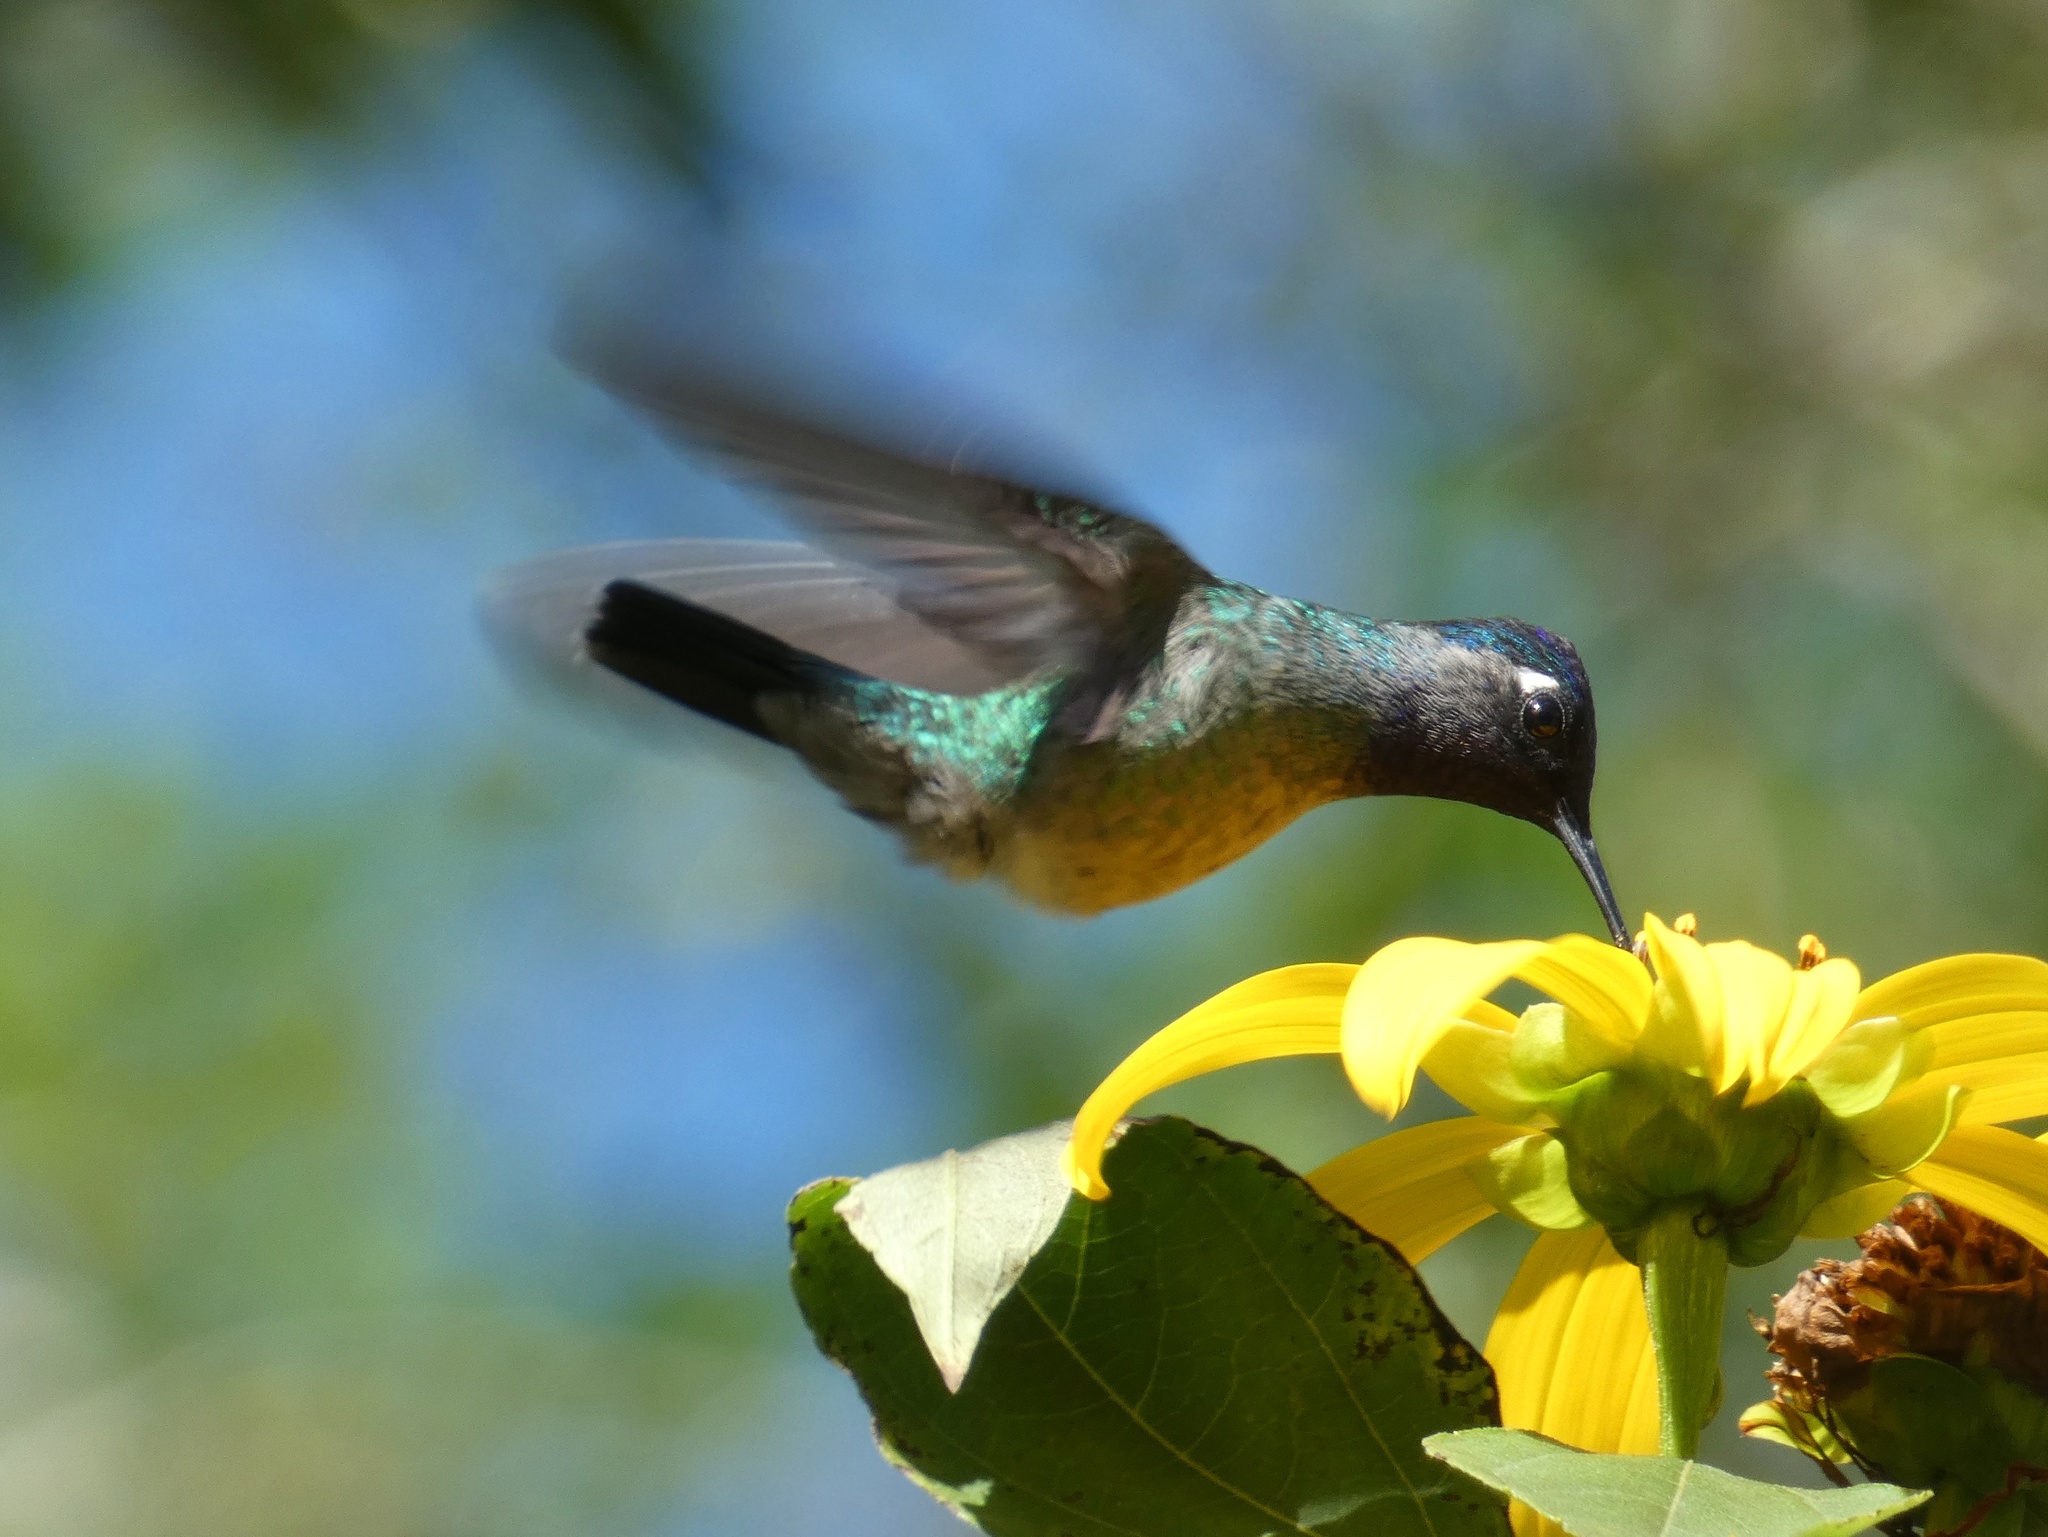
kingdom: Animalia
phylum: Chordata
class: Aves
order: Apodiformes
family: Trochilidae
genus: Klais
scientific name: Klais guimeti
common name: Violet-headed hummingbird
